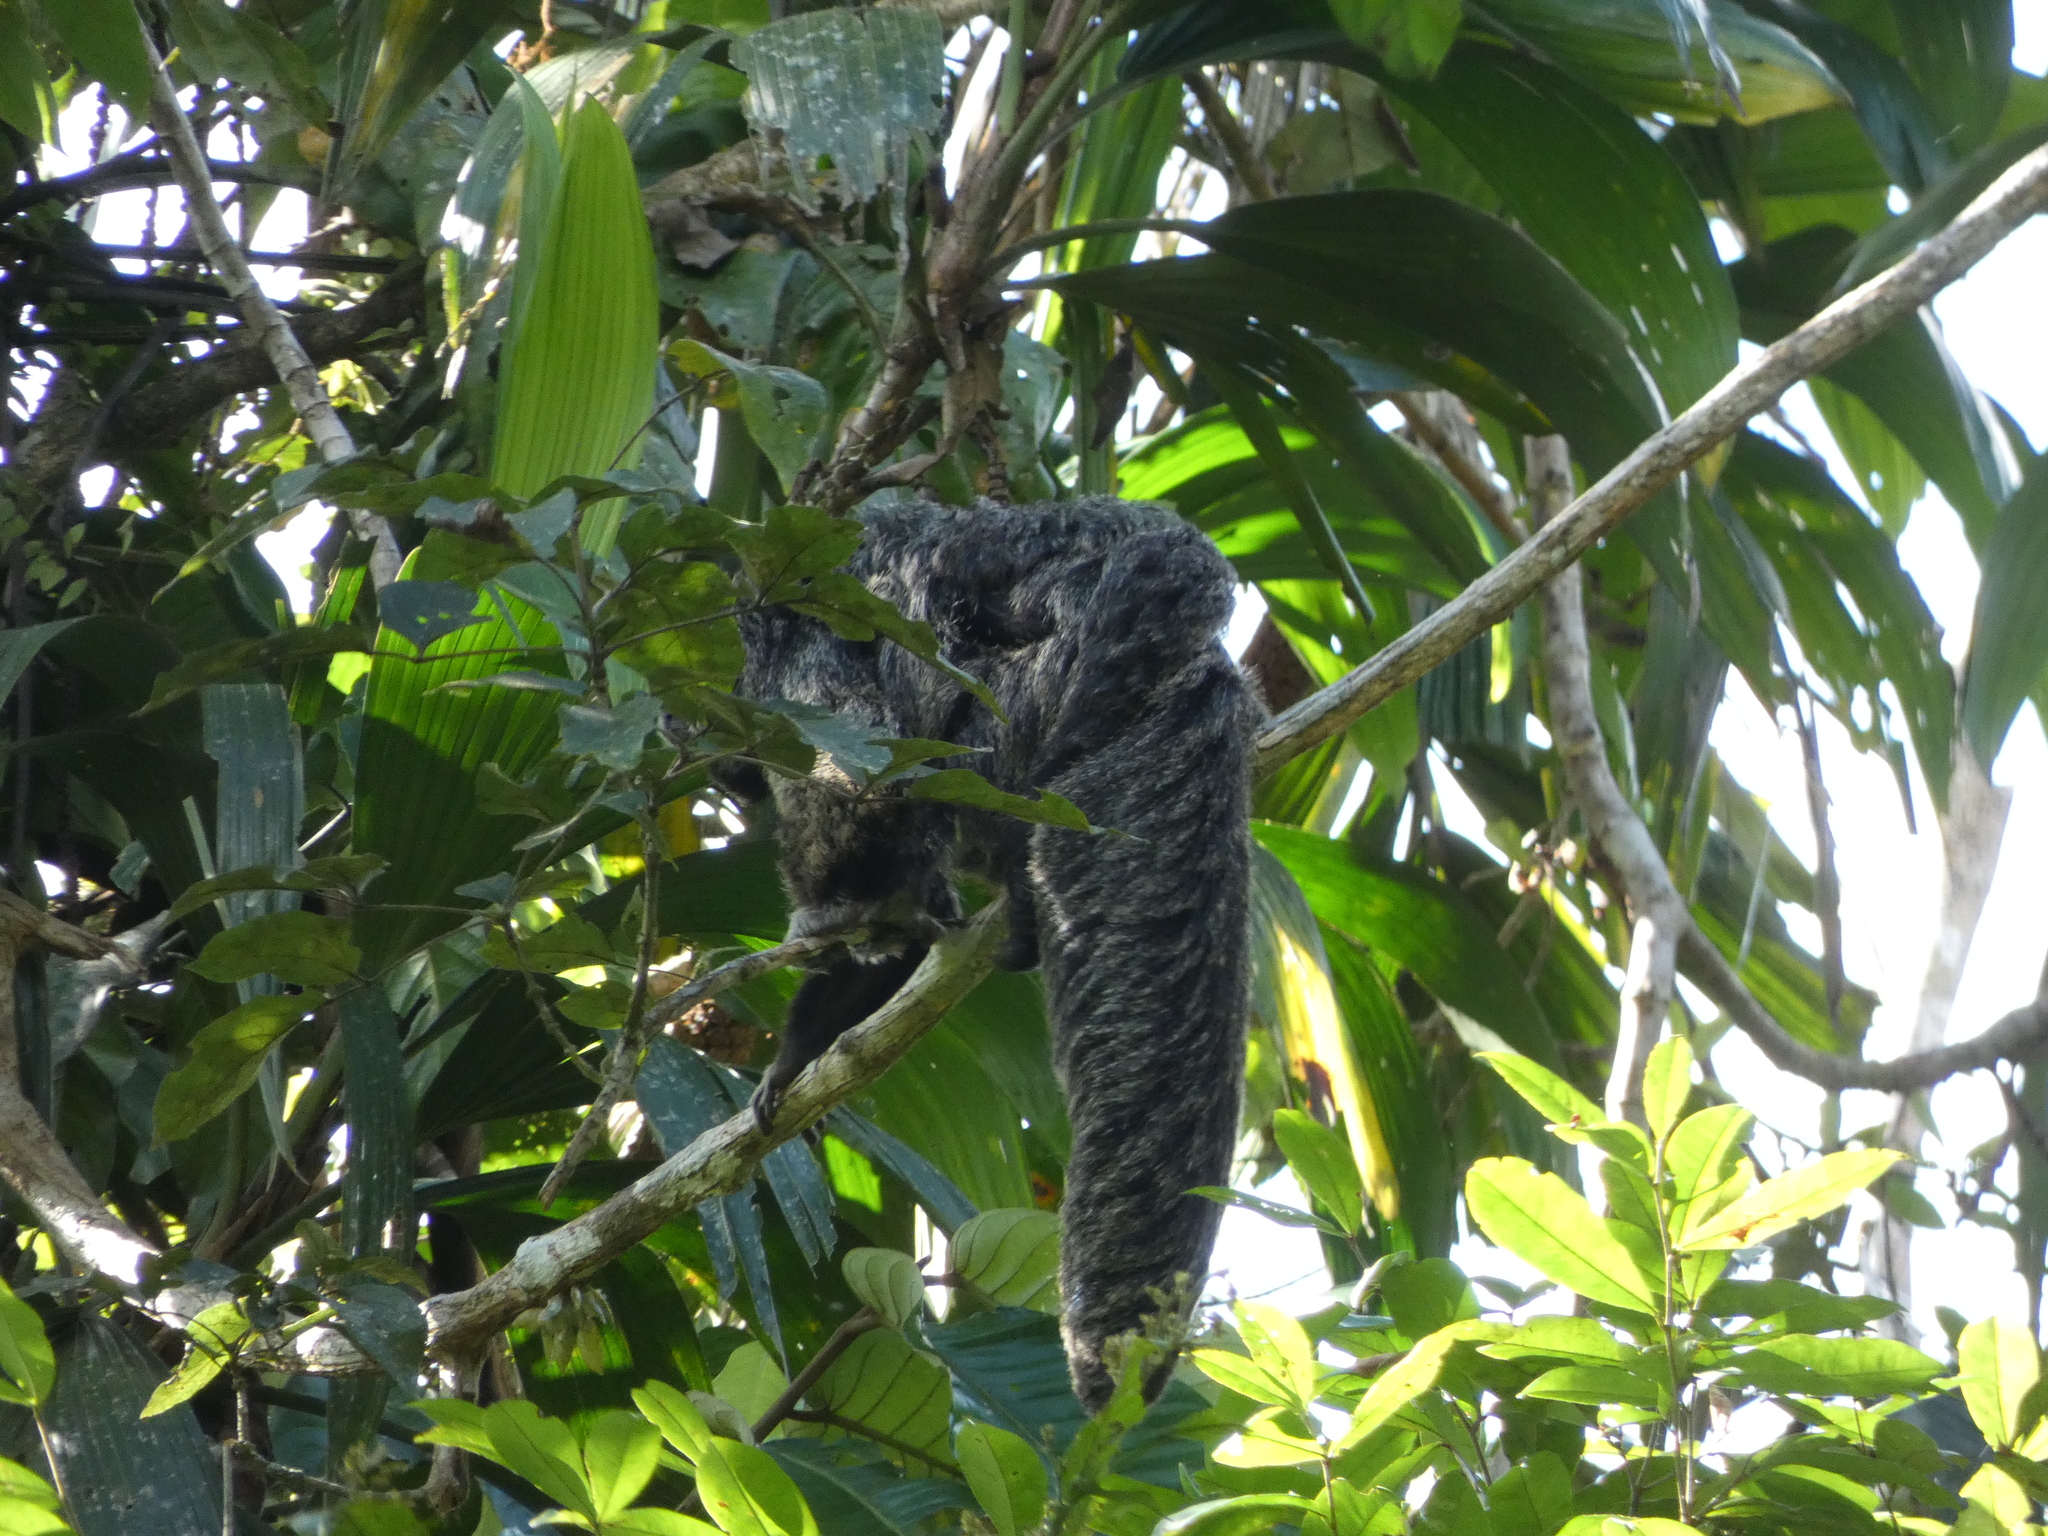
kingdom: Animalia
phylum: Chordata
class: Mammalia
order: Primates
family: Pitheciidae
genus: Pithecia
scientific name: Pithecia milleri
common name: Miller's saki
